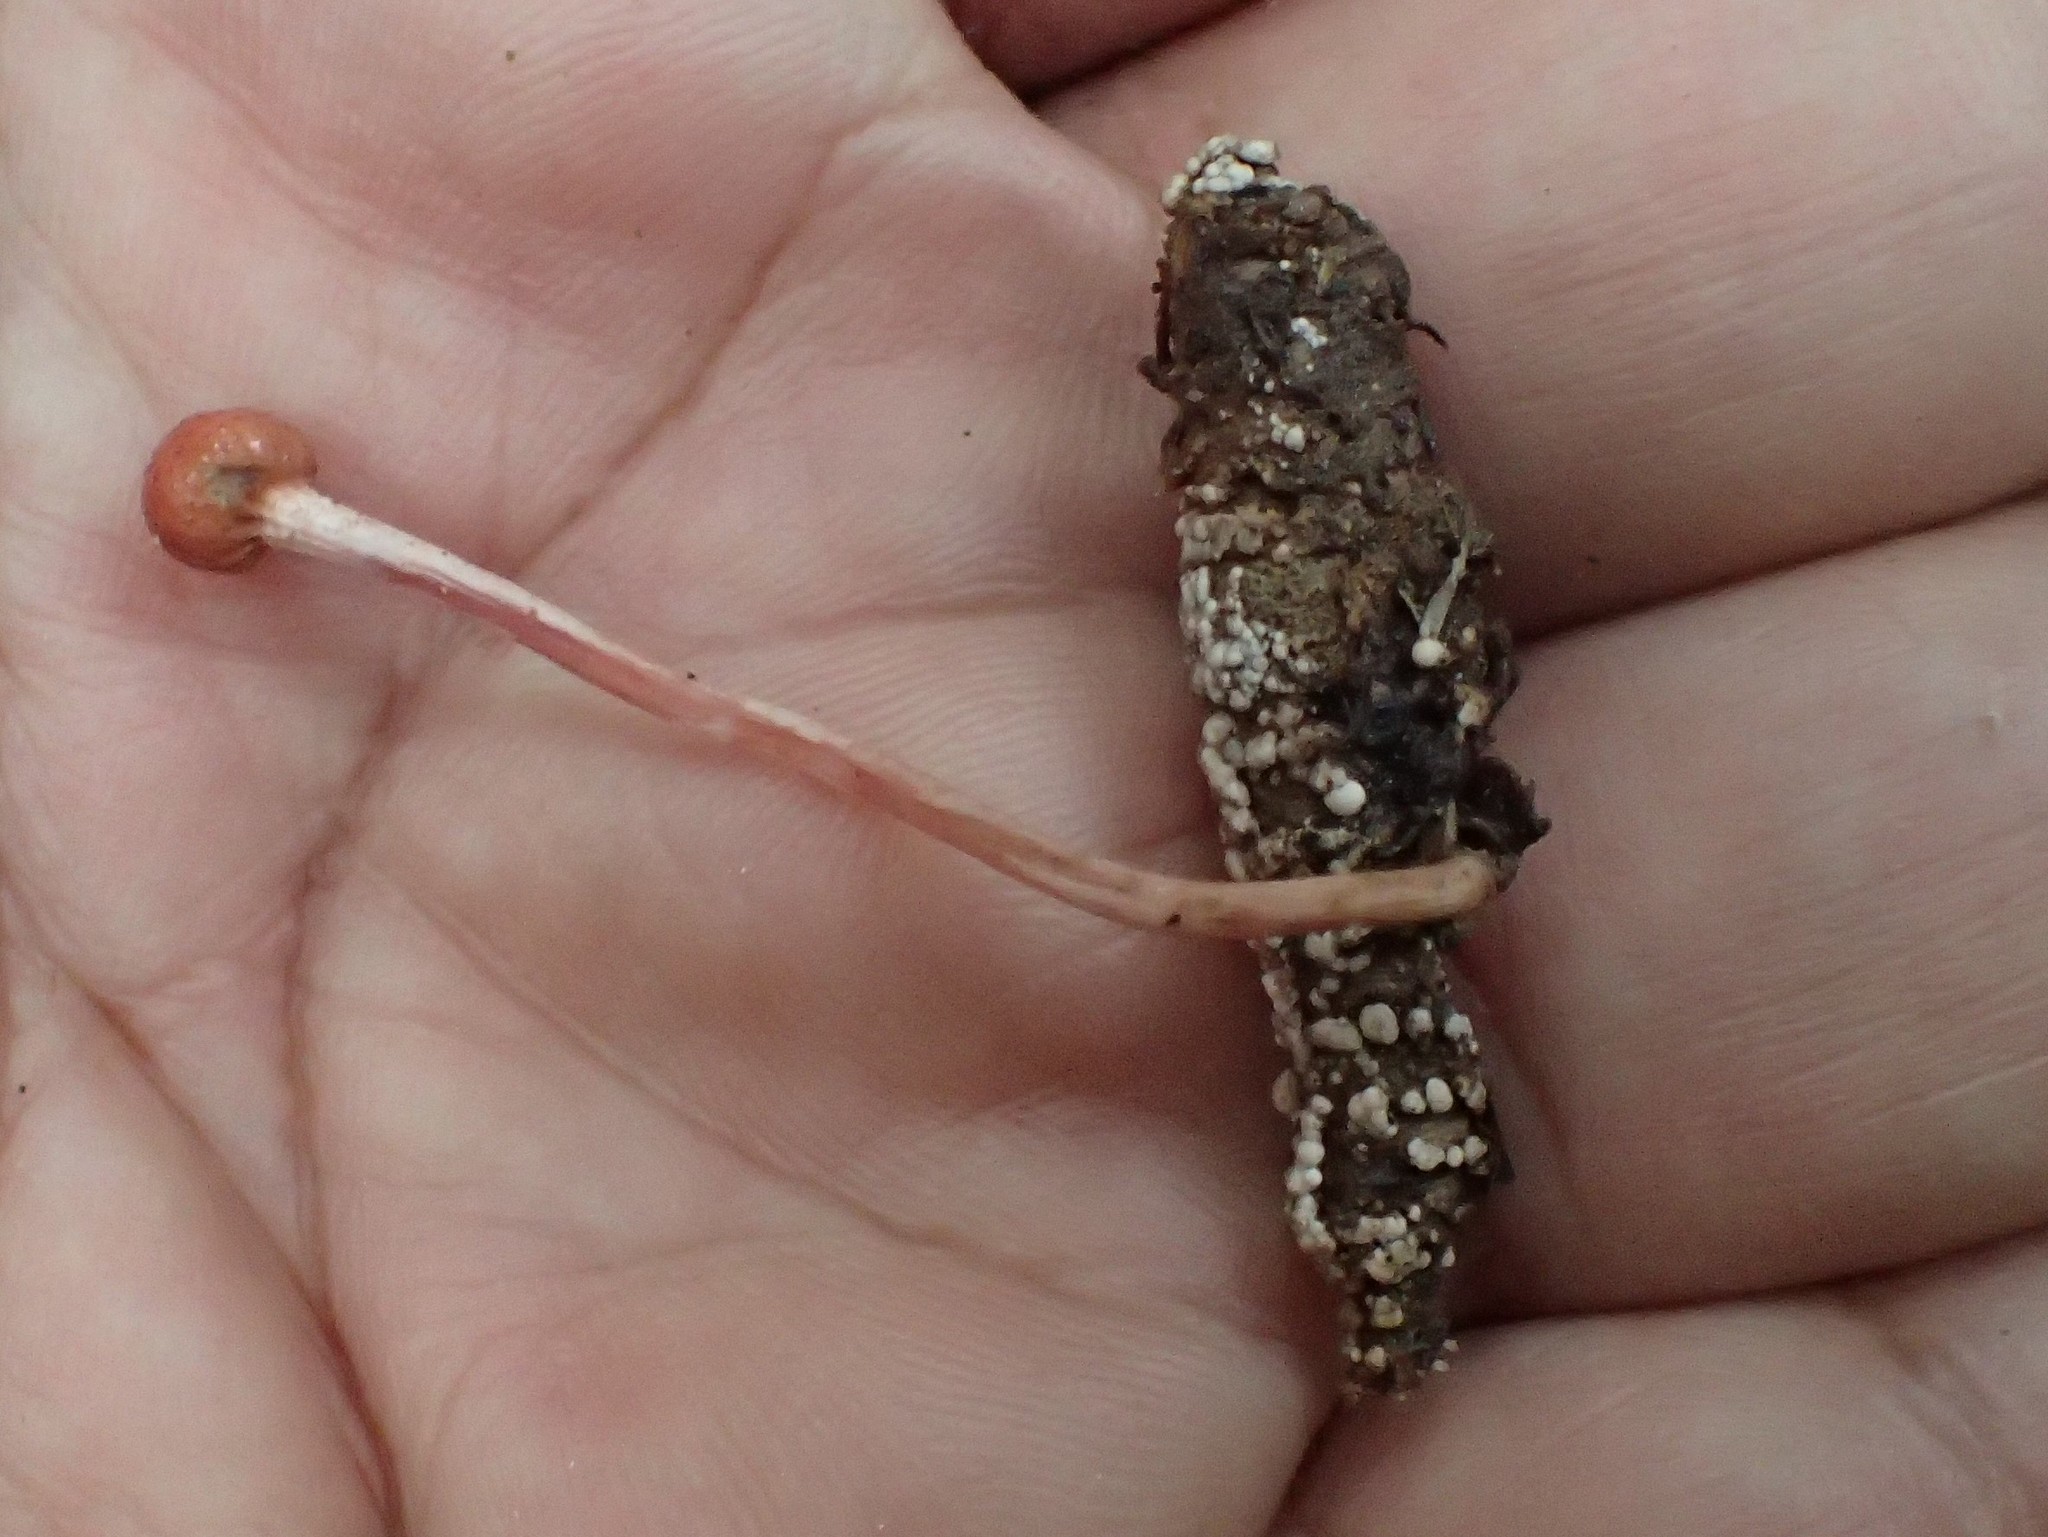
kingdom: Fungi
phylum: Ascomycota
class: Sordariomycetes
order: Hypocreales
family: Ophiocordycipitaceae
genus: Paraisaria
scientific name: Paraisaria amazonica
